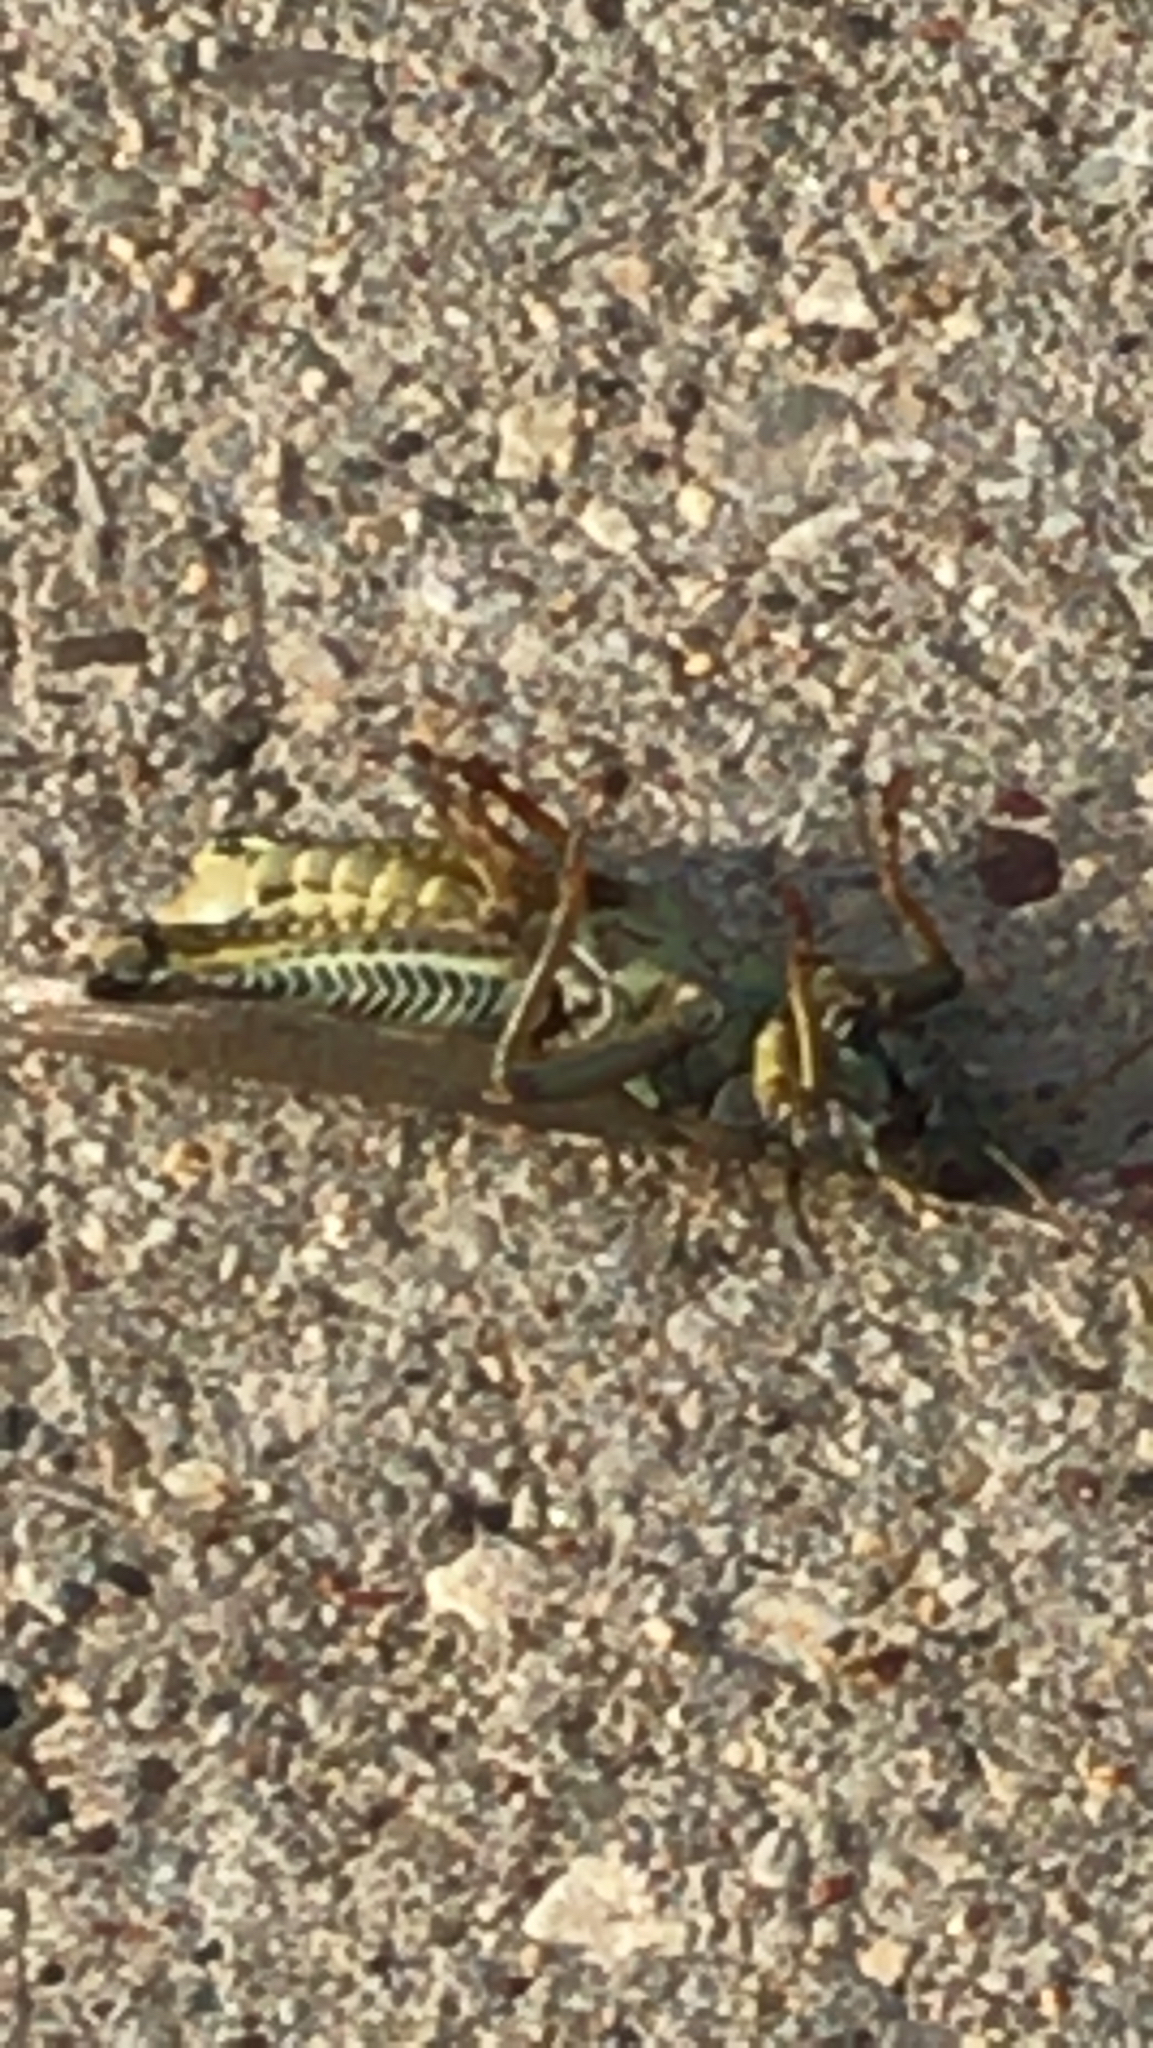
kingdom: Animalia
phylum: Arthropoda
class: Insecta
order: Orthoptera
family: Acrididae
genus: Melanoplus
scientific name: Melanoplus differentialis
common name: Differential grasshopper
